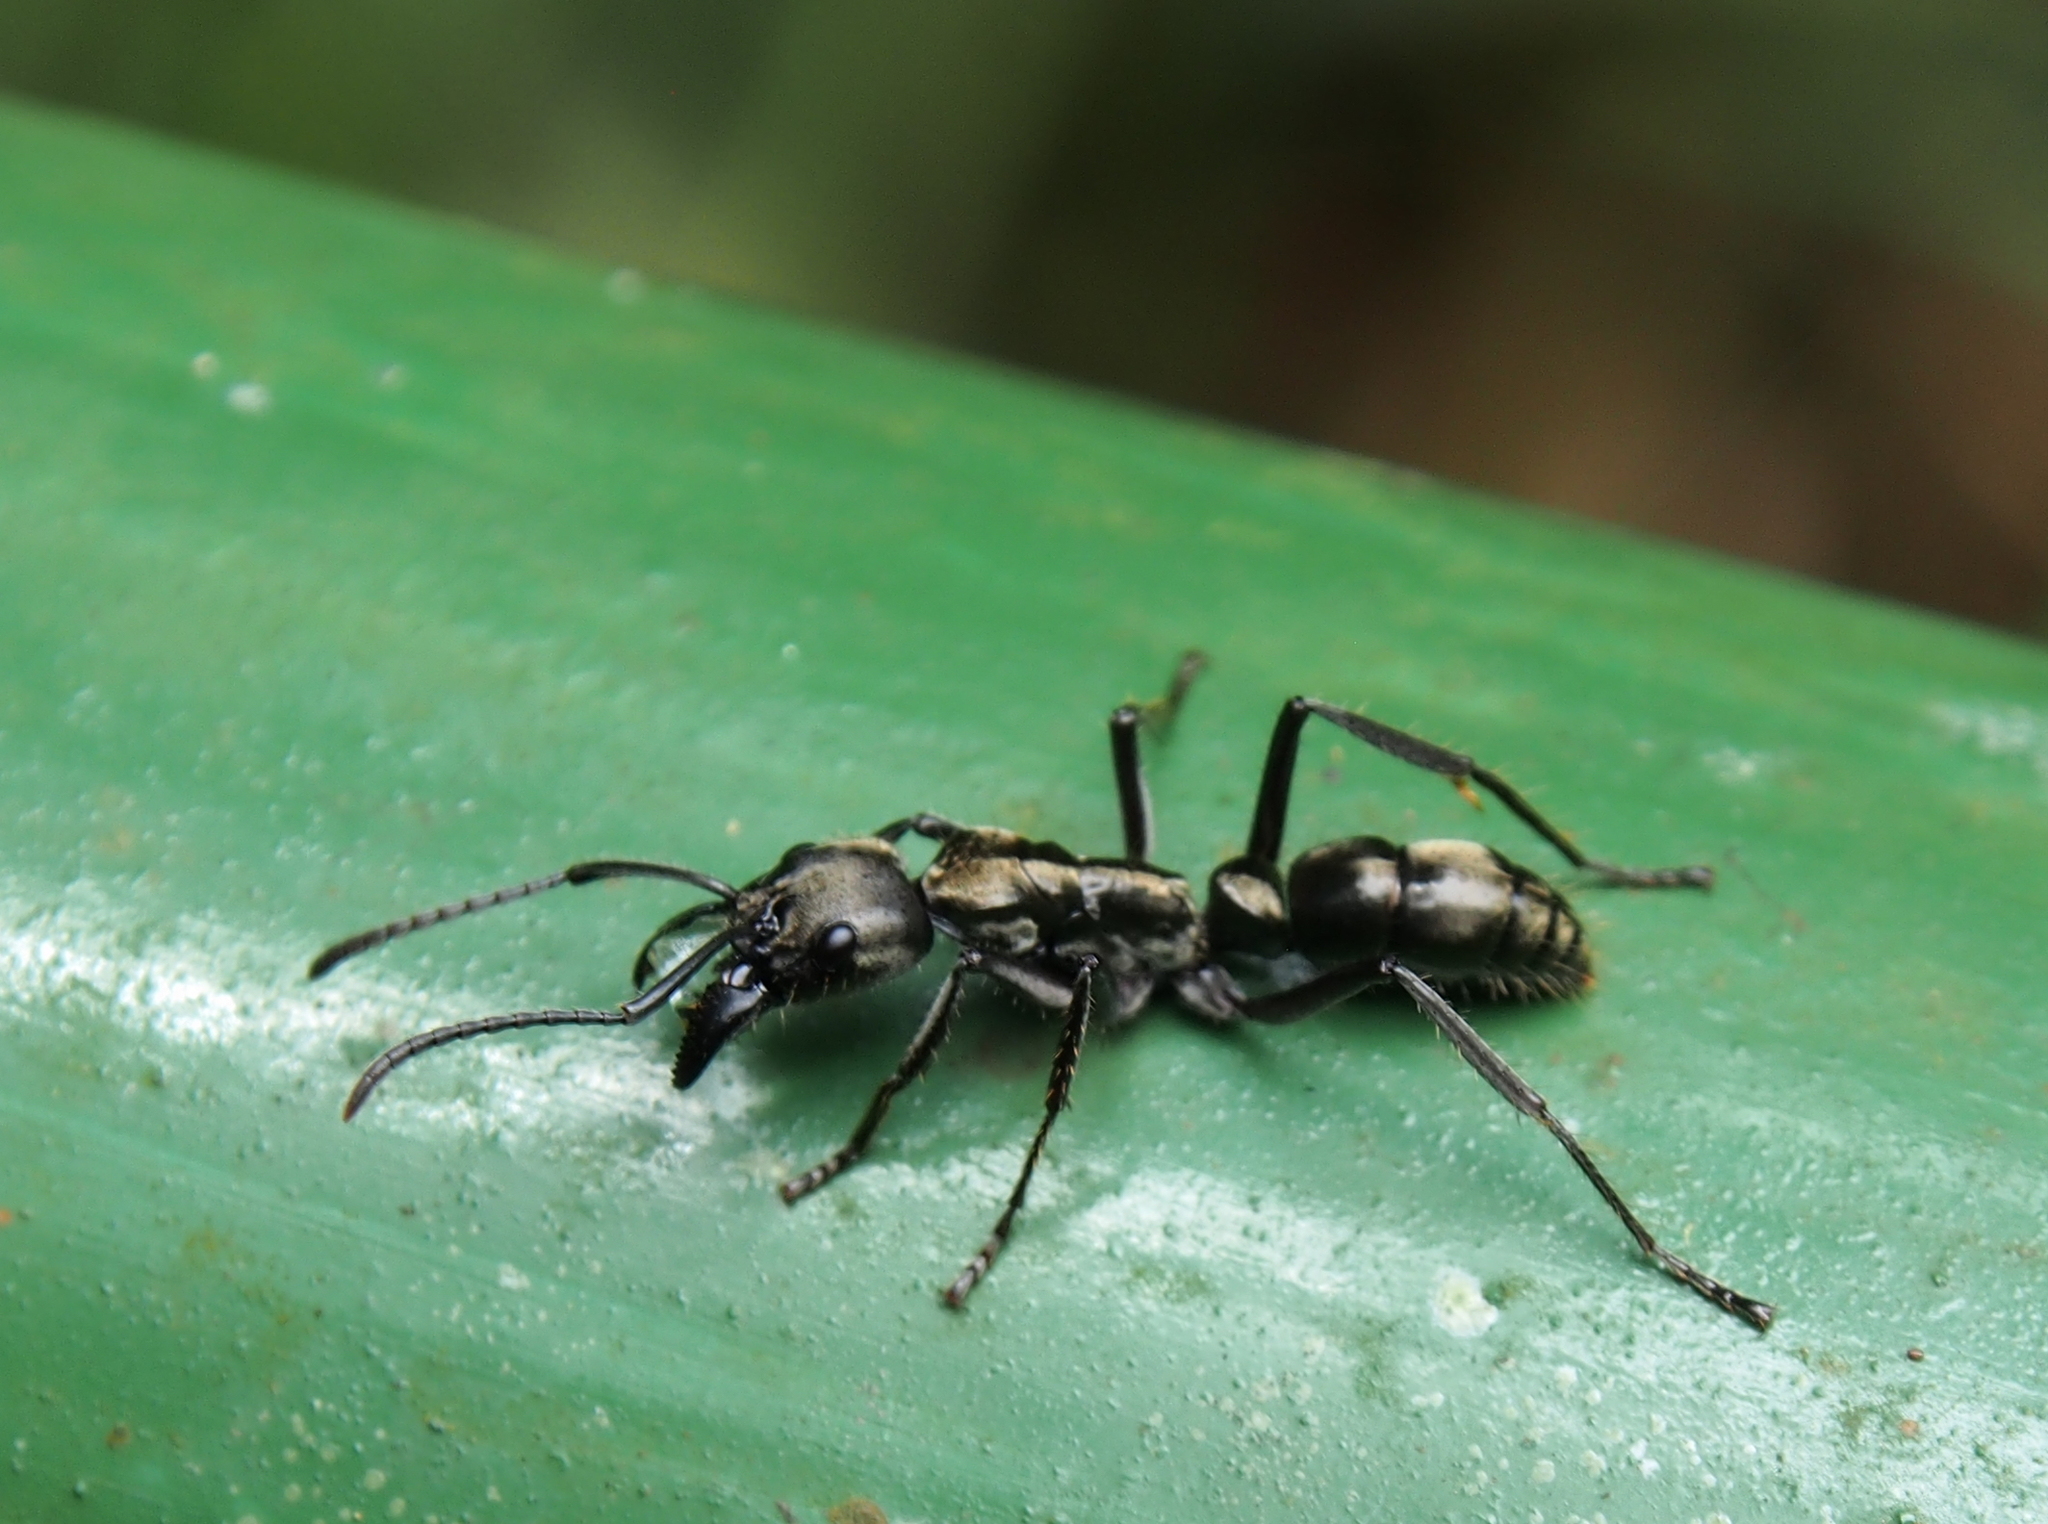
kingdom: Animalia
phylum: Arthropoda
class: Insecta
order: Hymenoptera
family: Formicidae
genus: Pachycondyla
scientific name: Pachycondyla villosa
